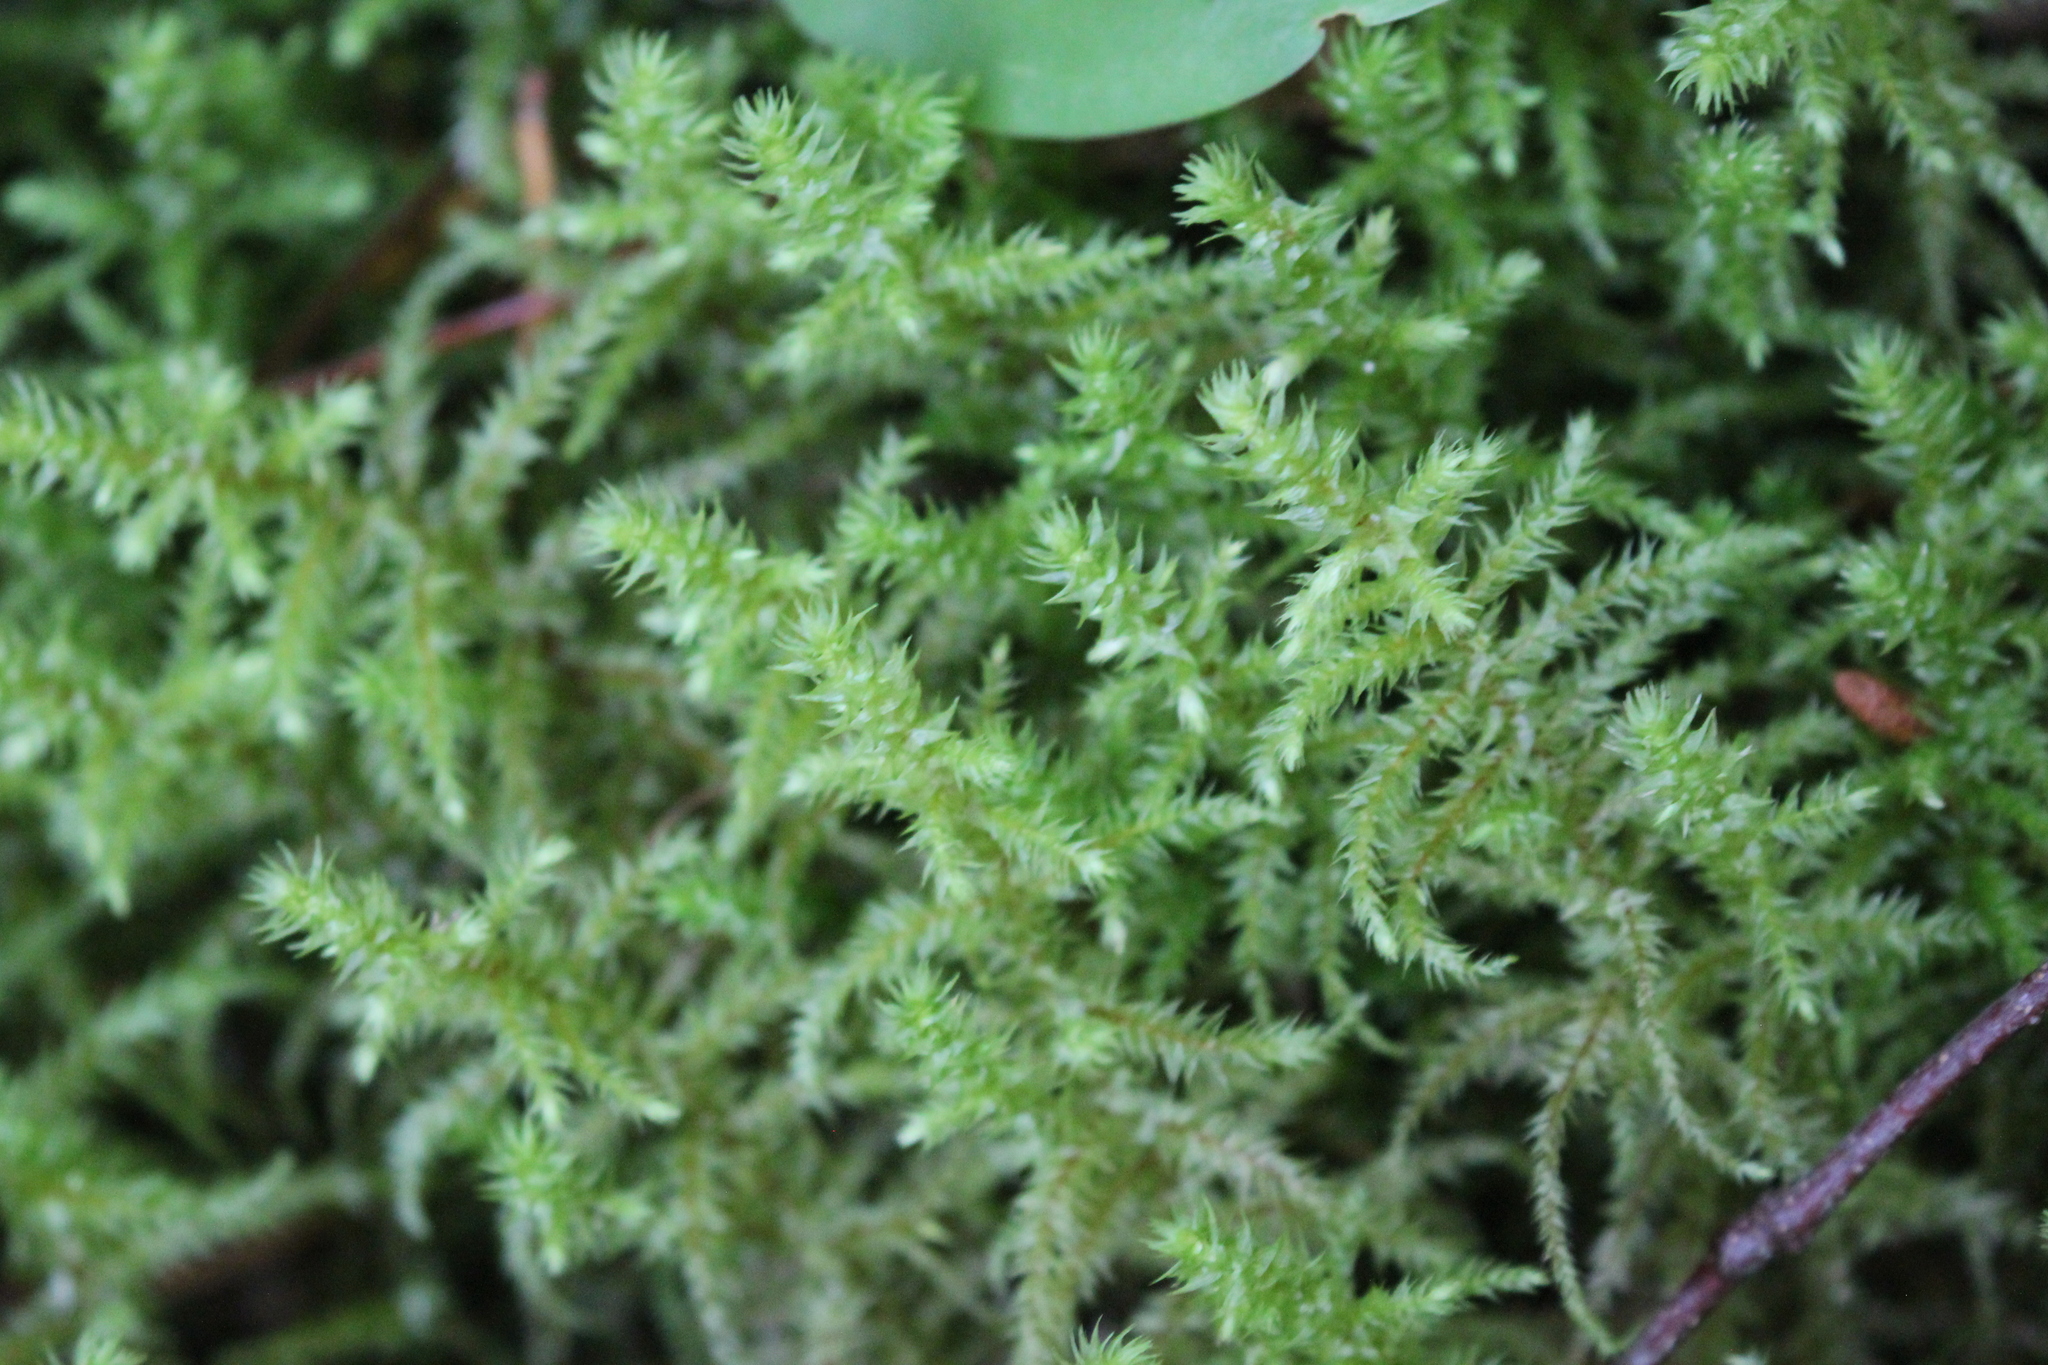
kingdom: Plantae
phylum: Bryophyta
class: Bryopsida
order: Hypnales
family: Hylocomiaceae
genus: Hylocomiadelphus
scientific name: Hylocomiadelphus triquetrus
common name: Rough goose neck moss
